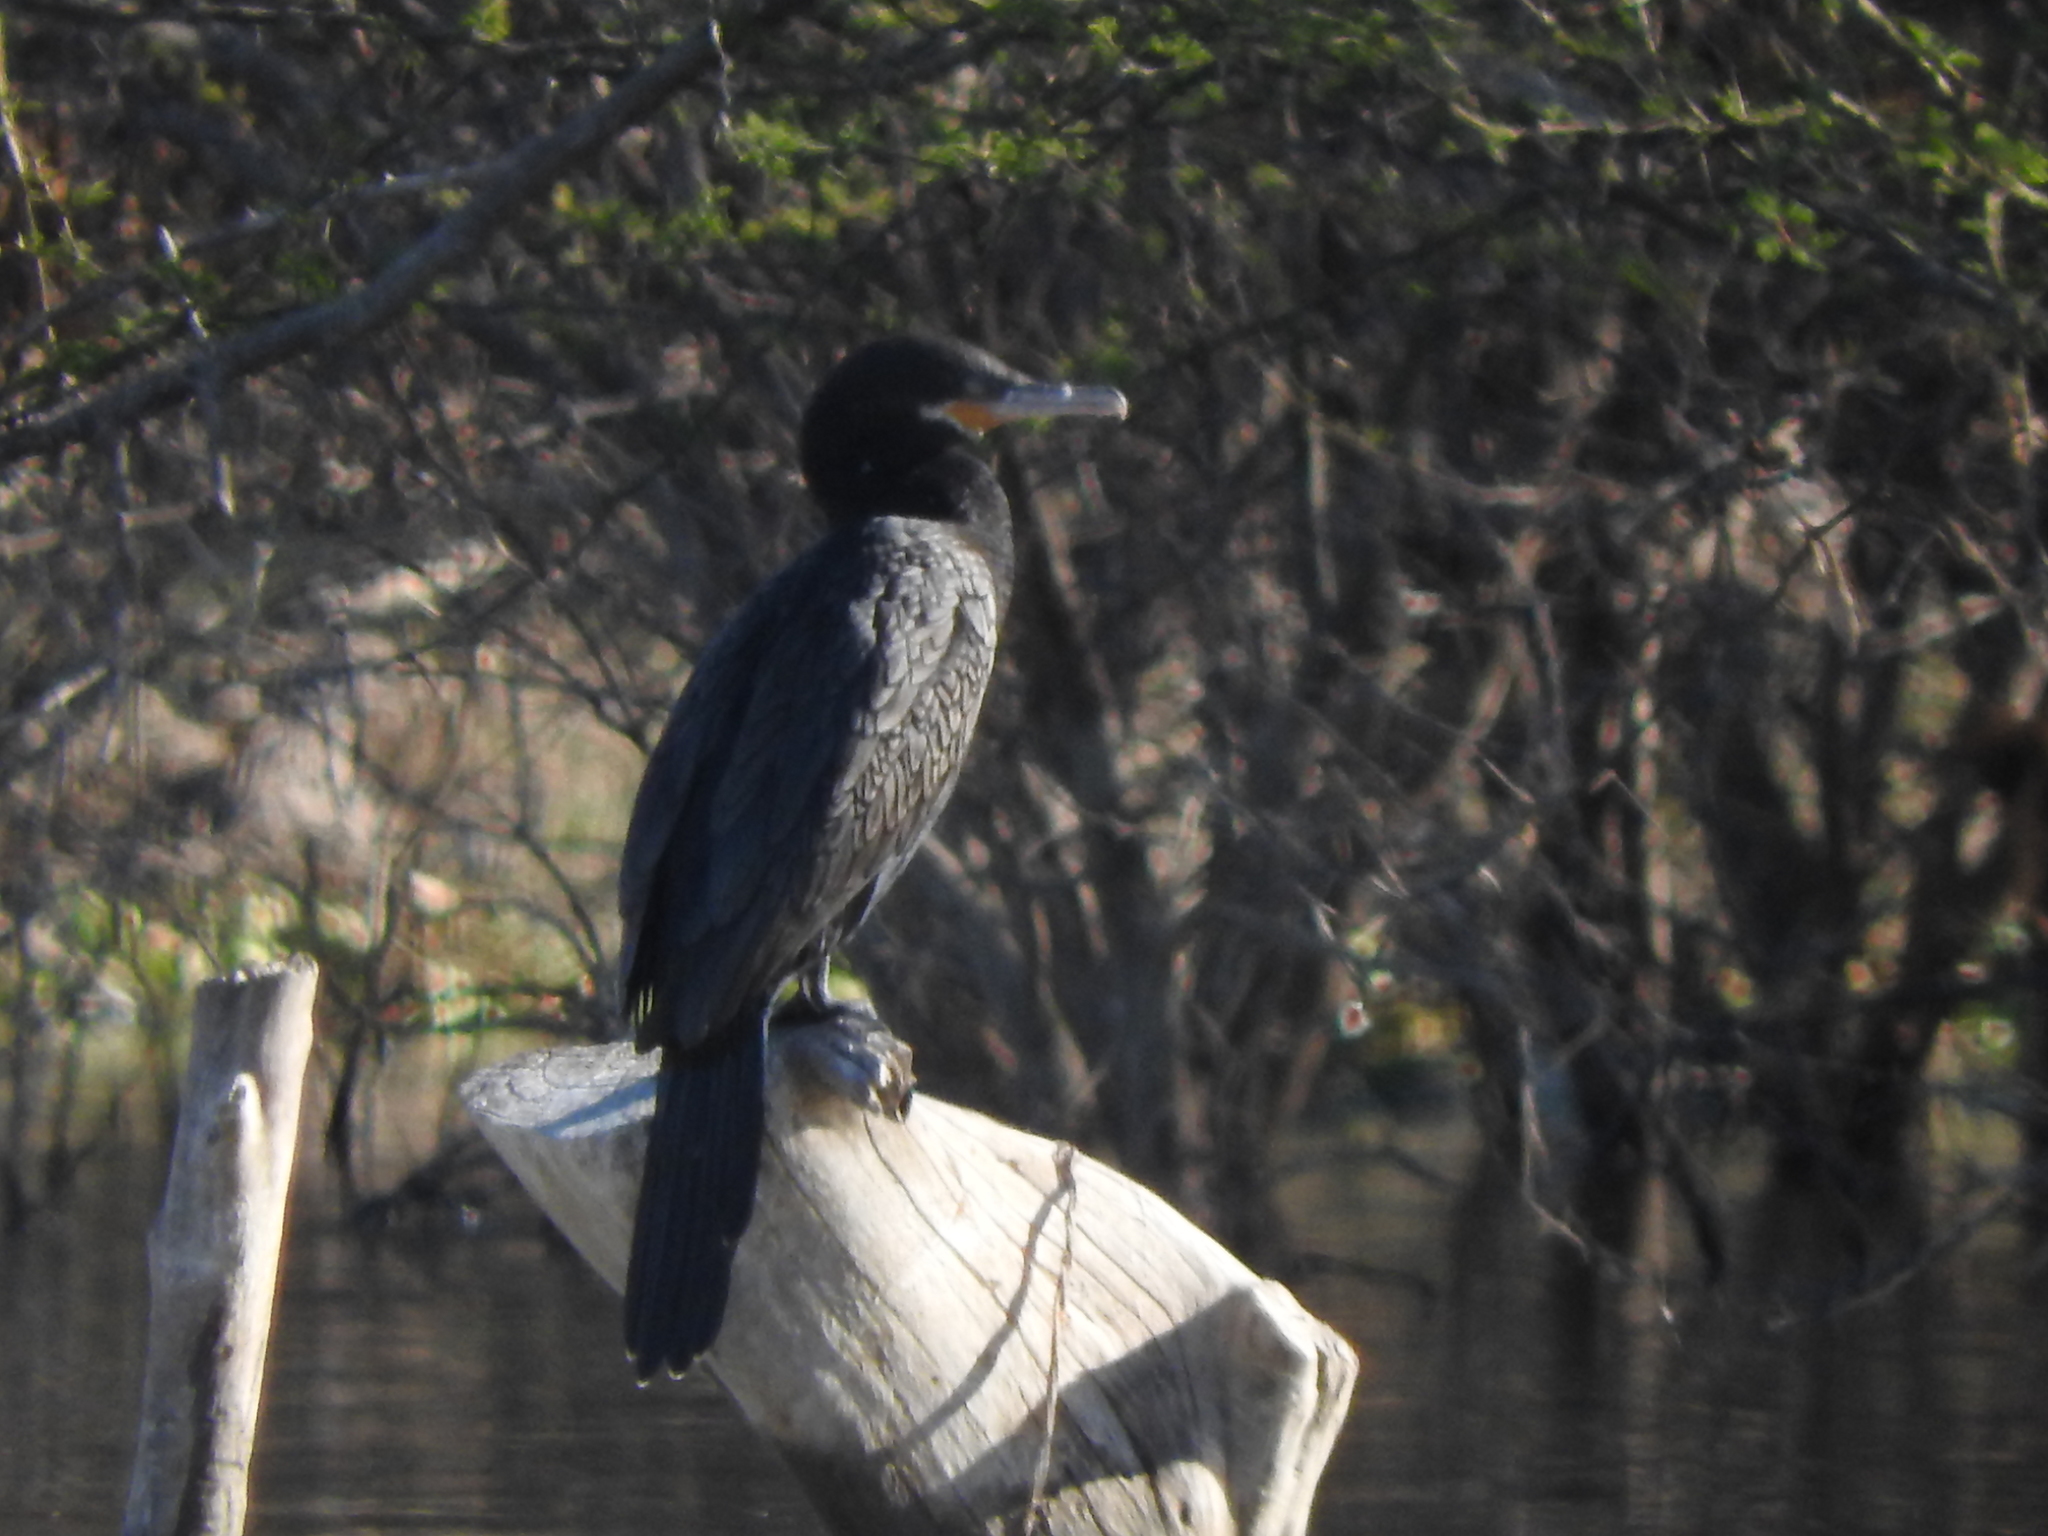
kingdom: Animalia
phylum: Chordata
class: Aves
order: Suliformes
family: Phalacrocoracidae
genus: Phalacrocorax
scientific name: Phalacrocorax brasilianus
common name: Neotropic cormorant
